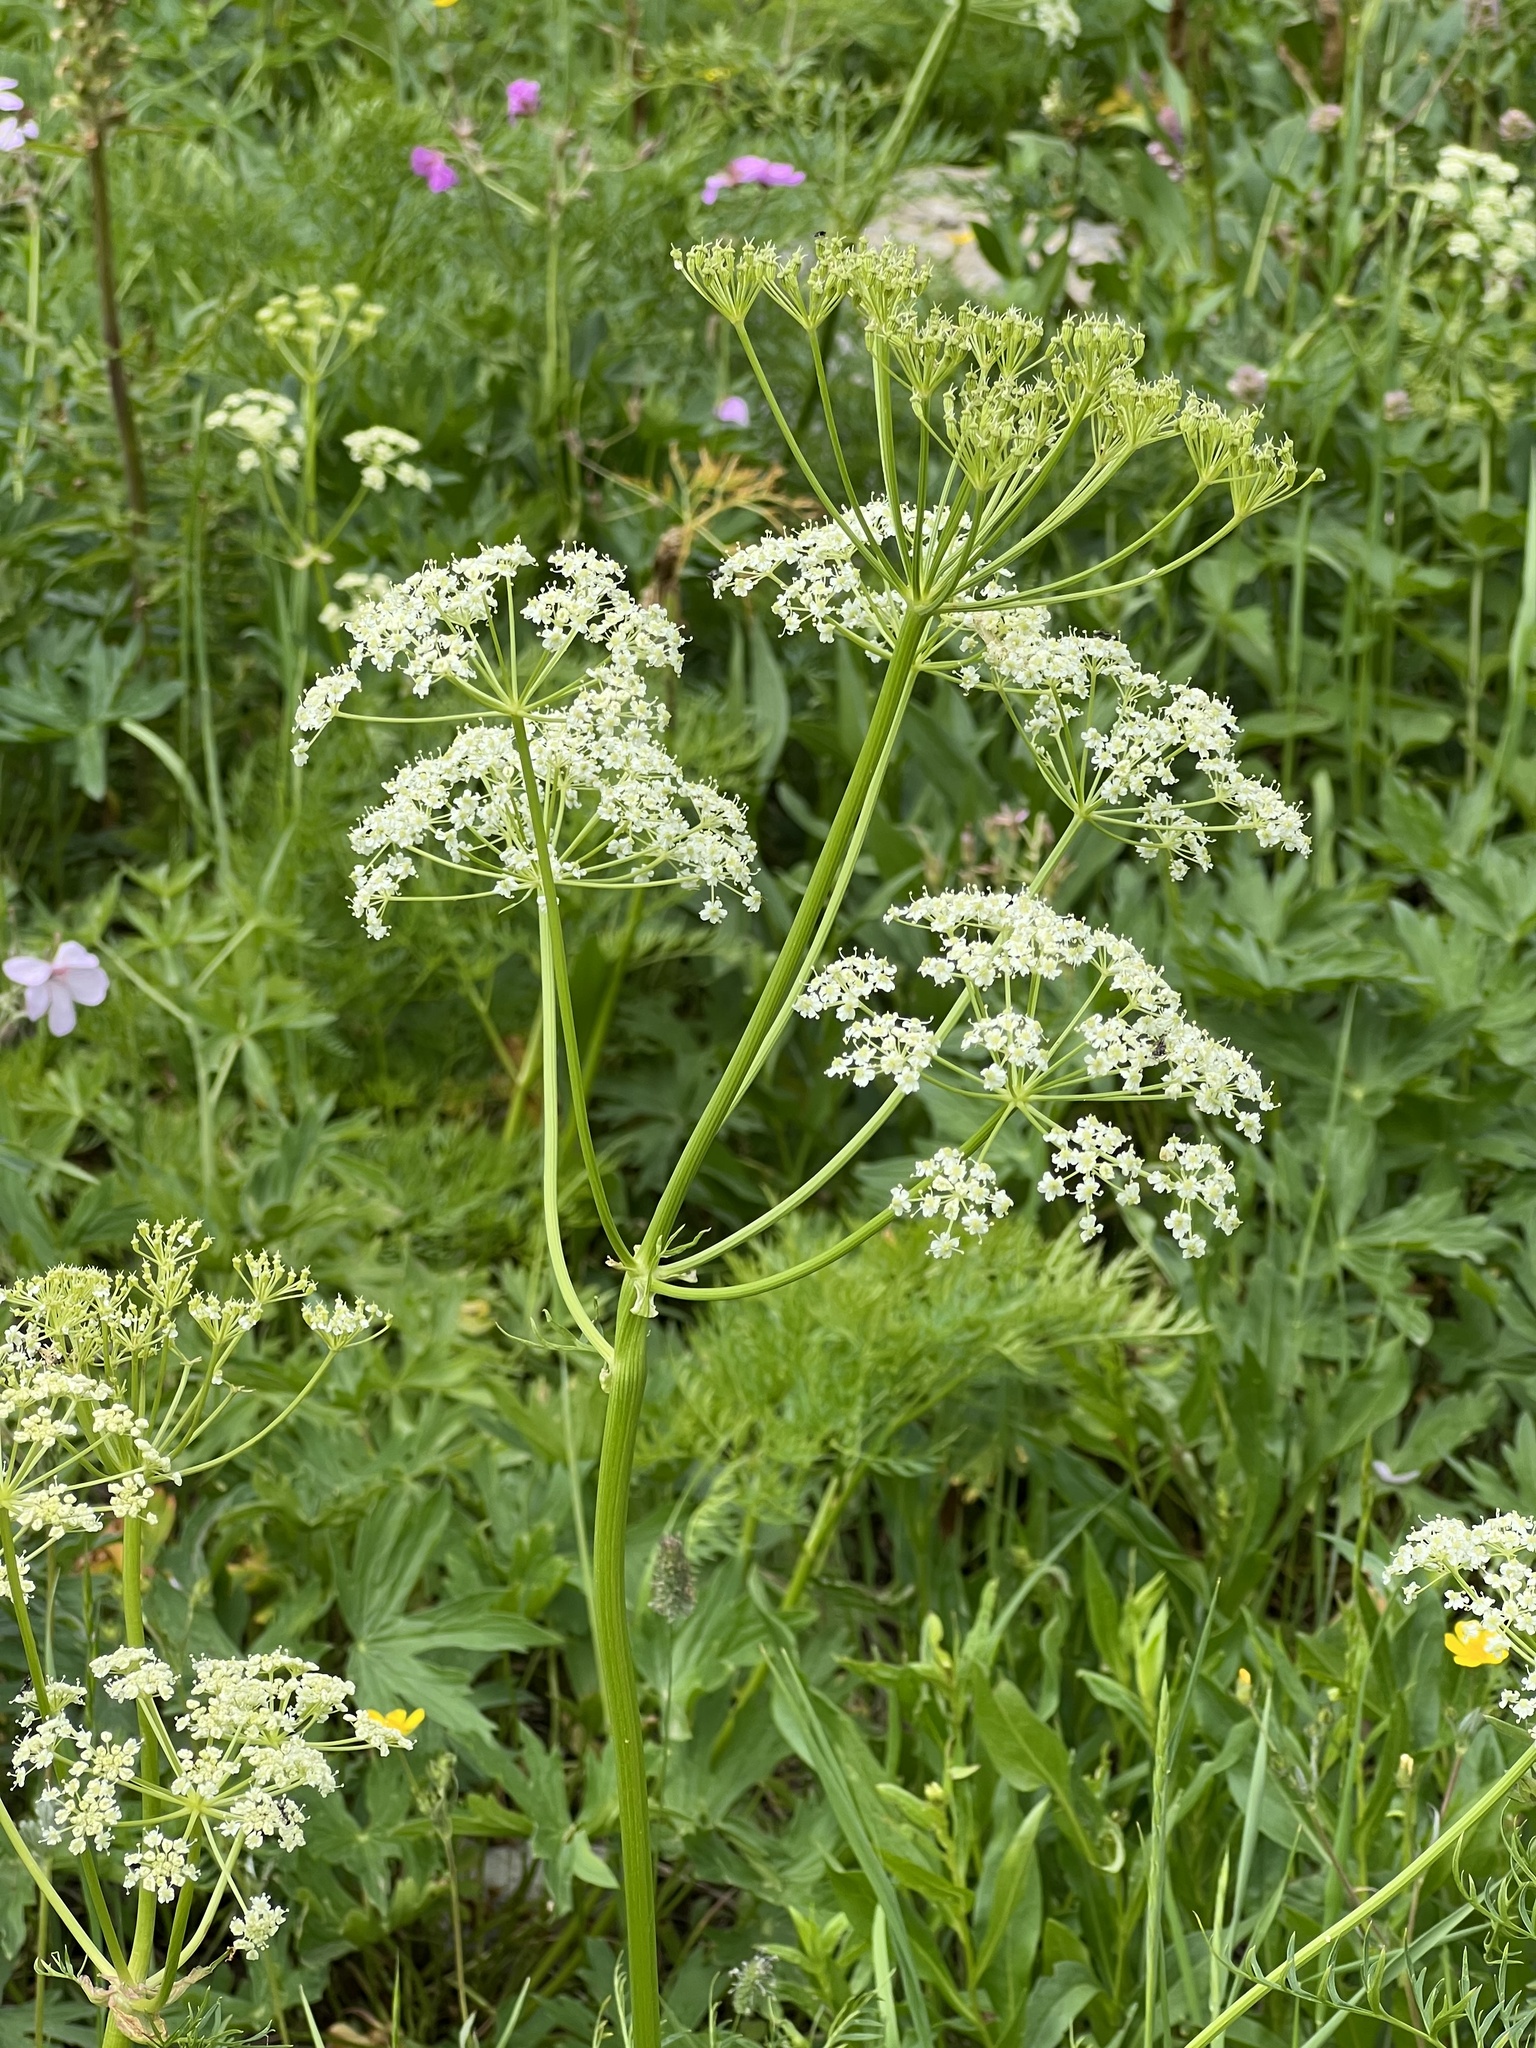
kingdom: Plantae
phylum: Tracheophyta
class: Magnoliopsida
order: Apiales
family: Apiaceae
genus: Conium
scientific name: Conium maculatum
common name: Hemlock
